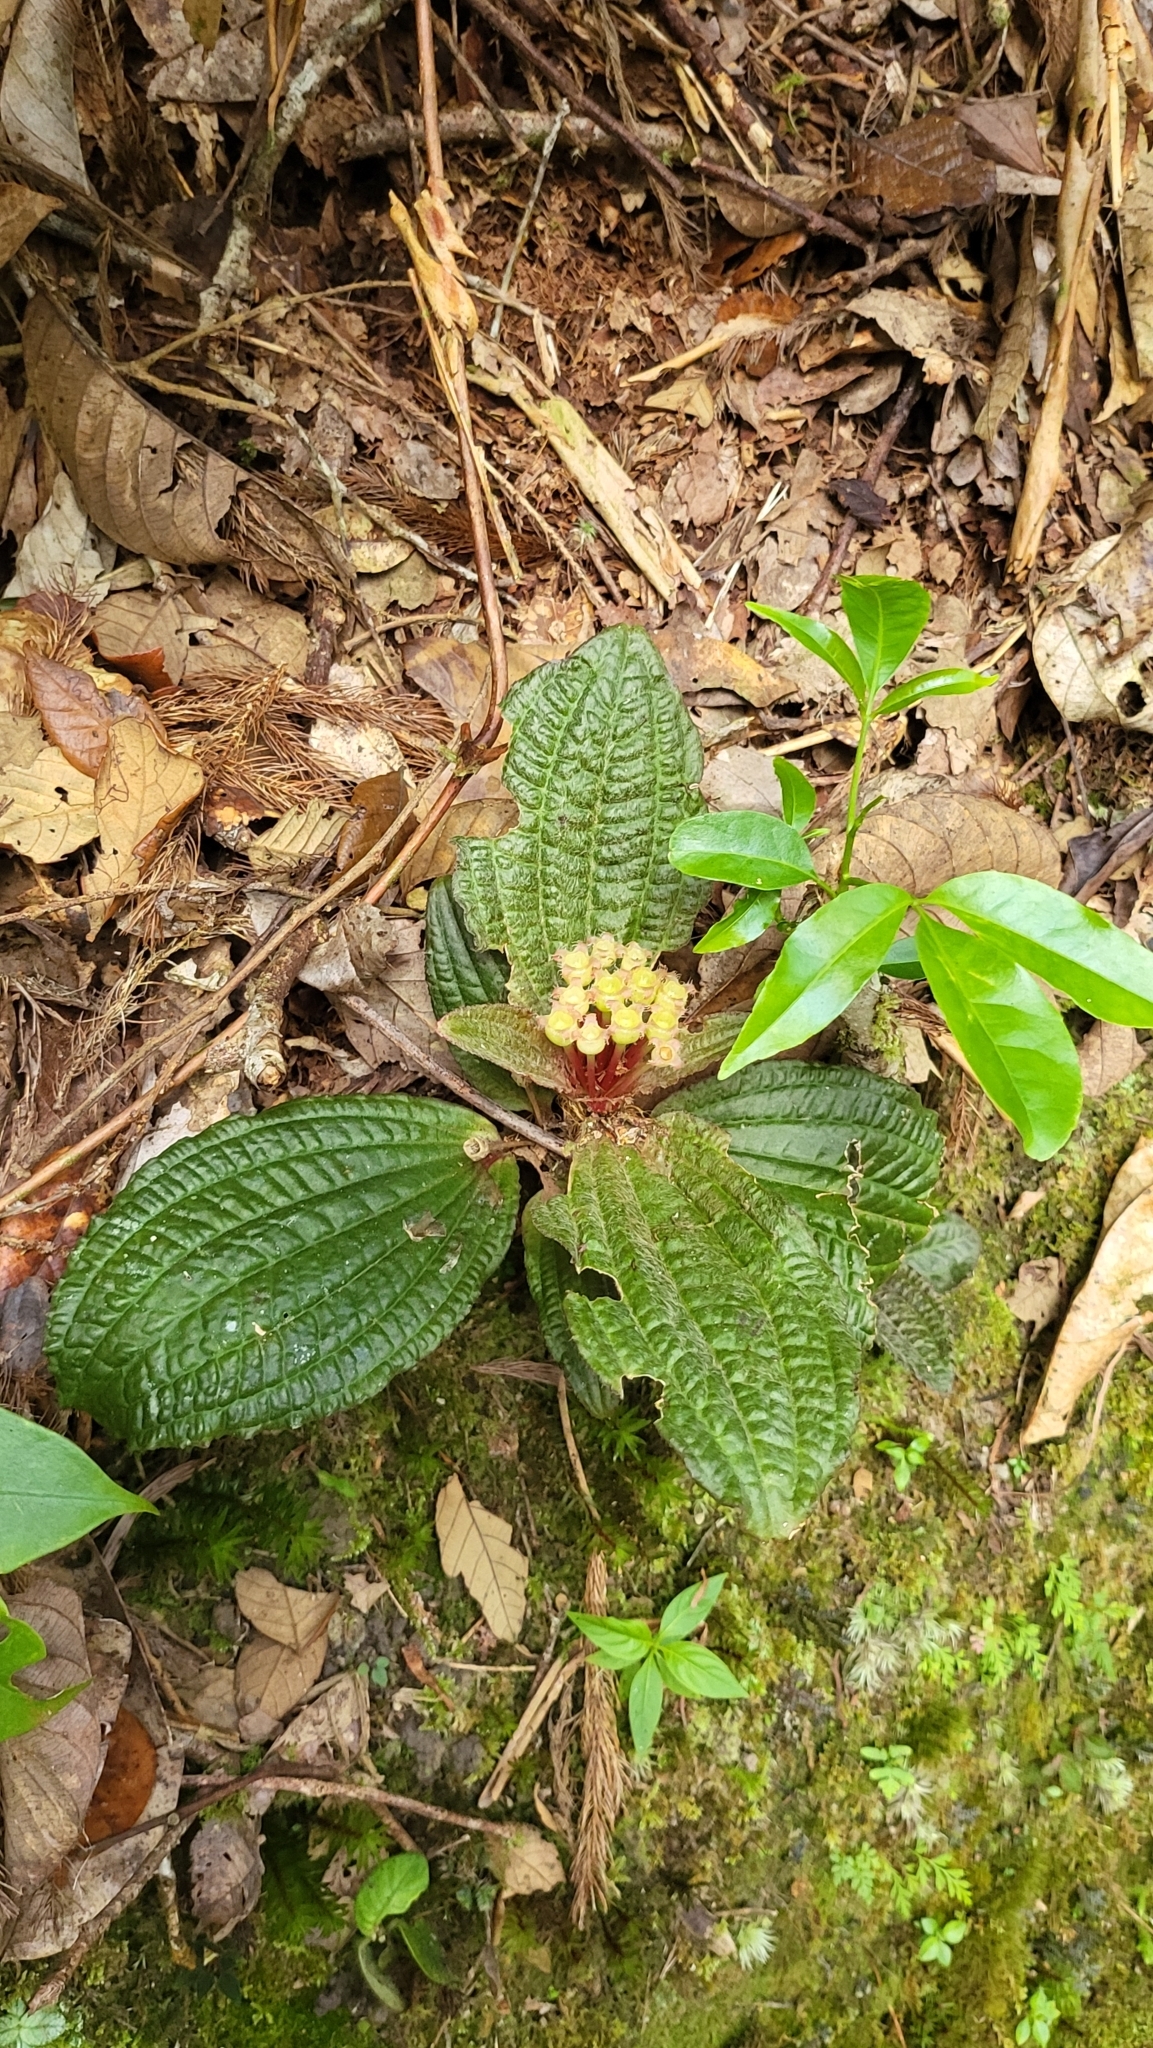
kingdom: Plantae
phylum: Tracheophyta
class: Magnoliopsida
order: Myrtales
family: Melastomataceae
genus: Phyllagathis
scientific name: Phyllagathis elliptica
